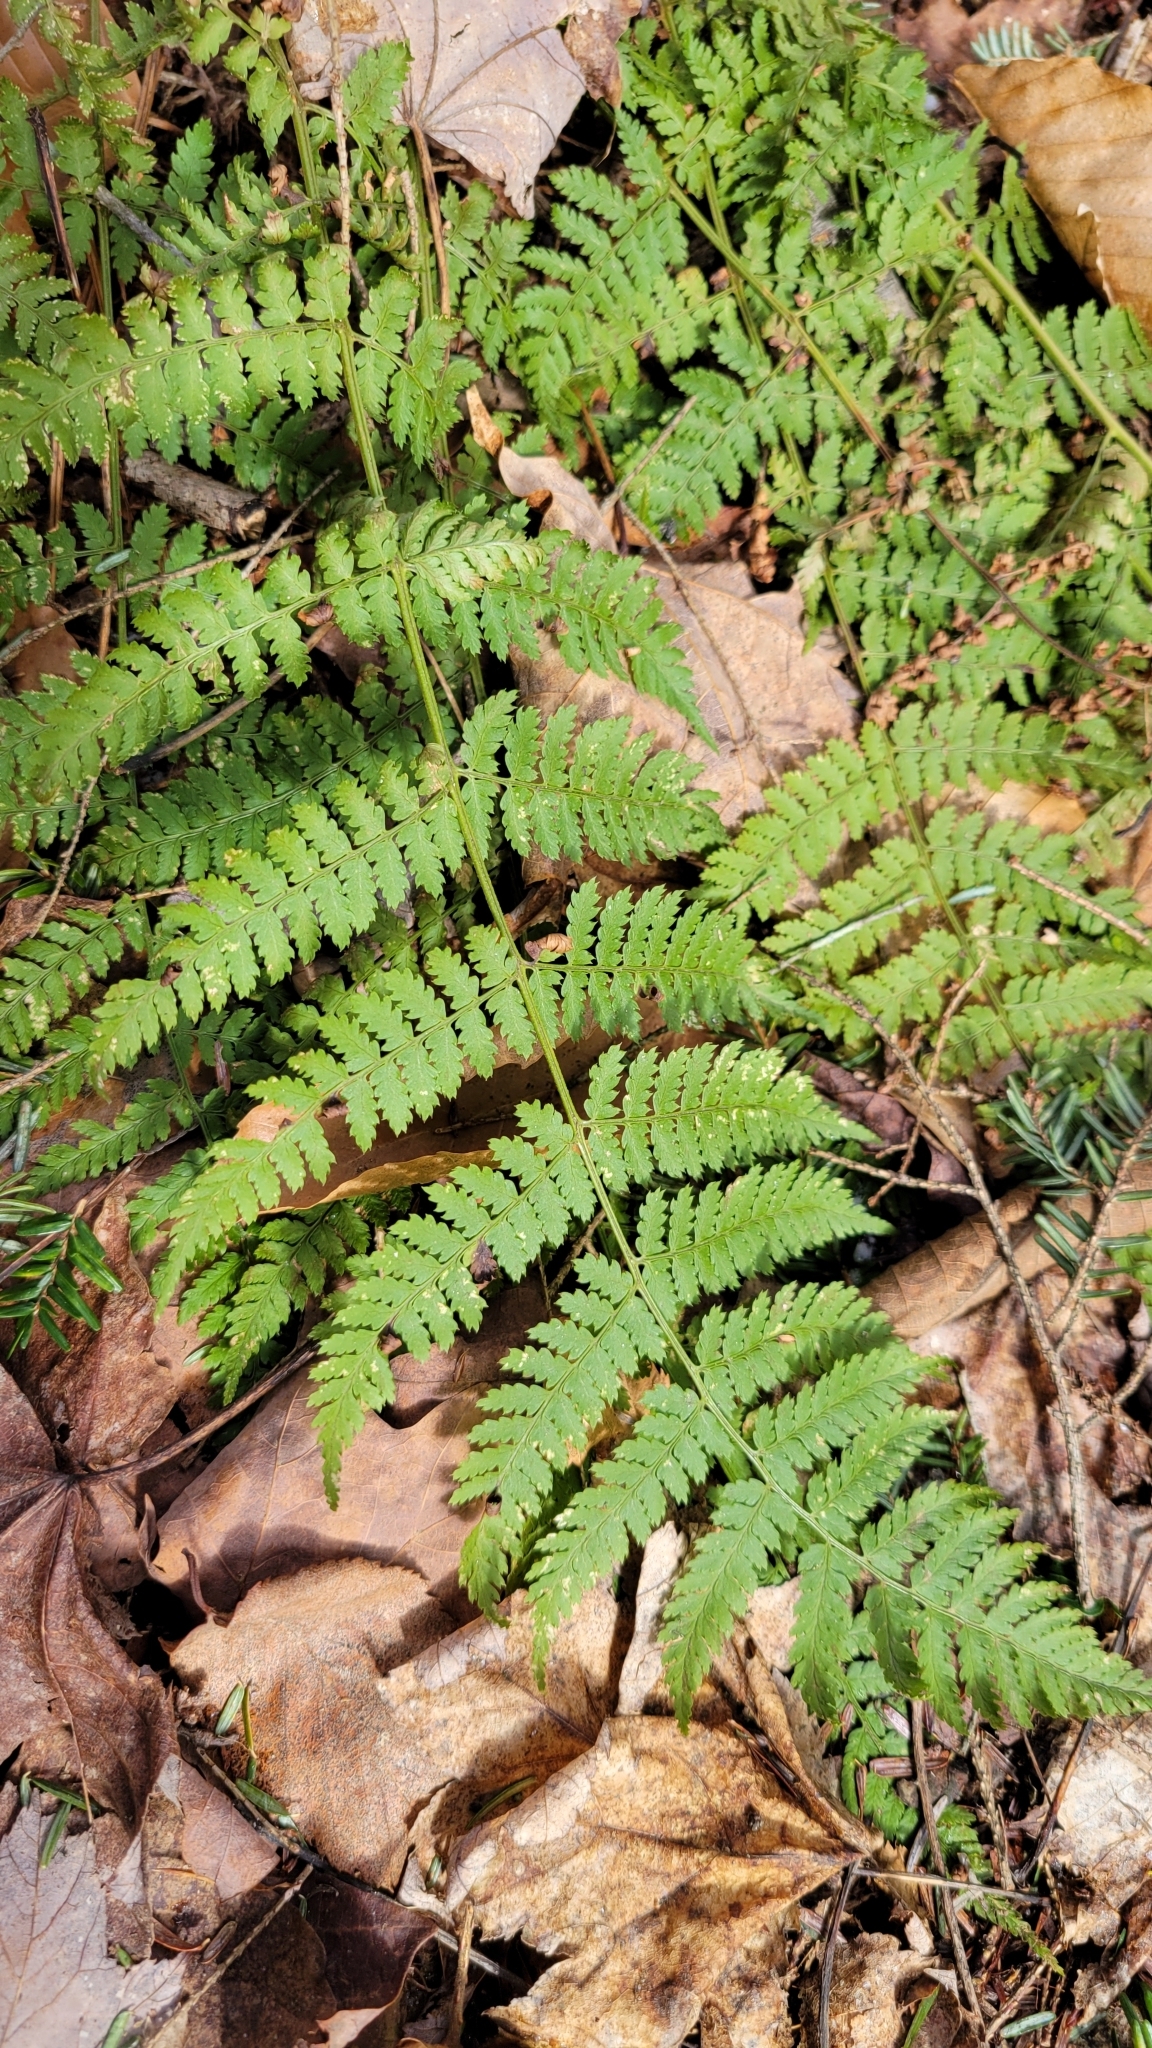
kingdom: Plantae
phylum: Tracheophyta
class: Polypodiopsida
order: Polypodiales
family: Dryopteridaceae
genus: Dryopteris
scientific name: Dryopteris intermedia
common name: Evergreen wood fern
